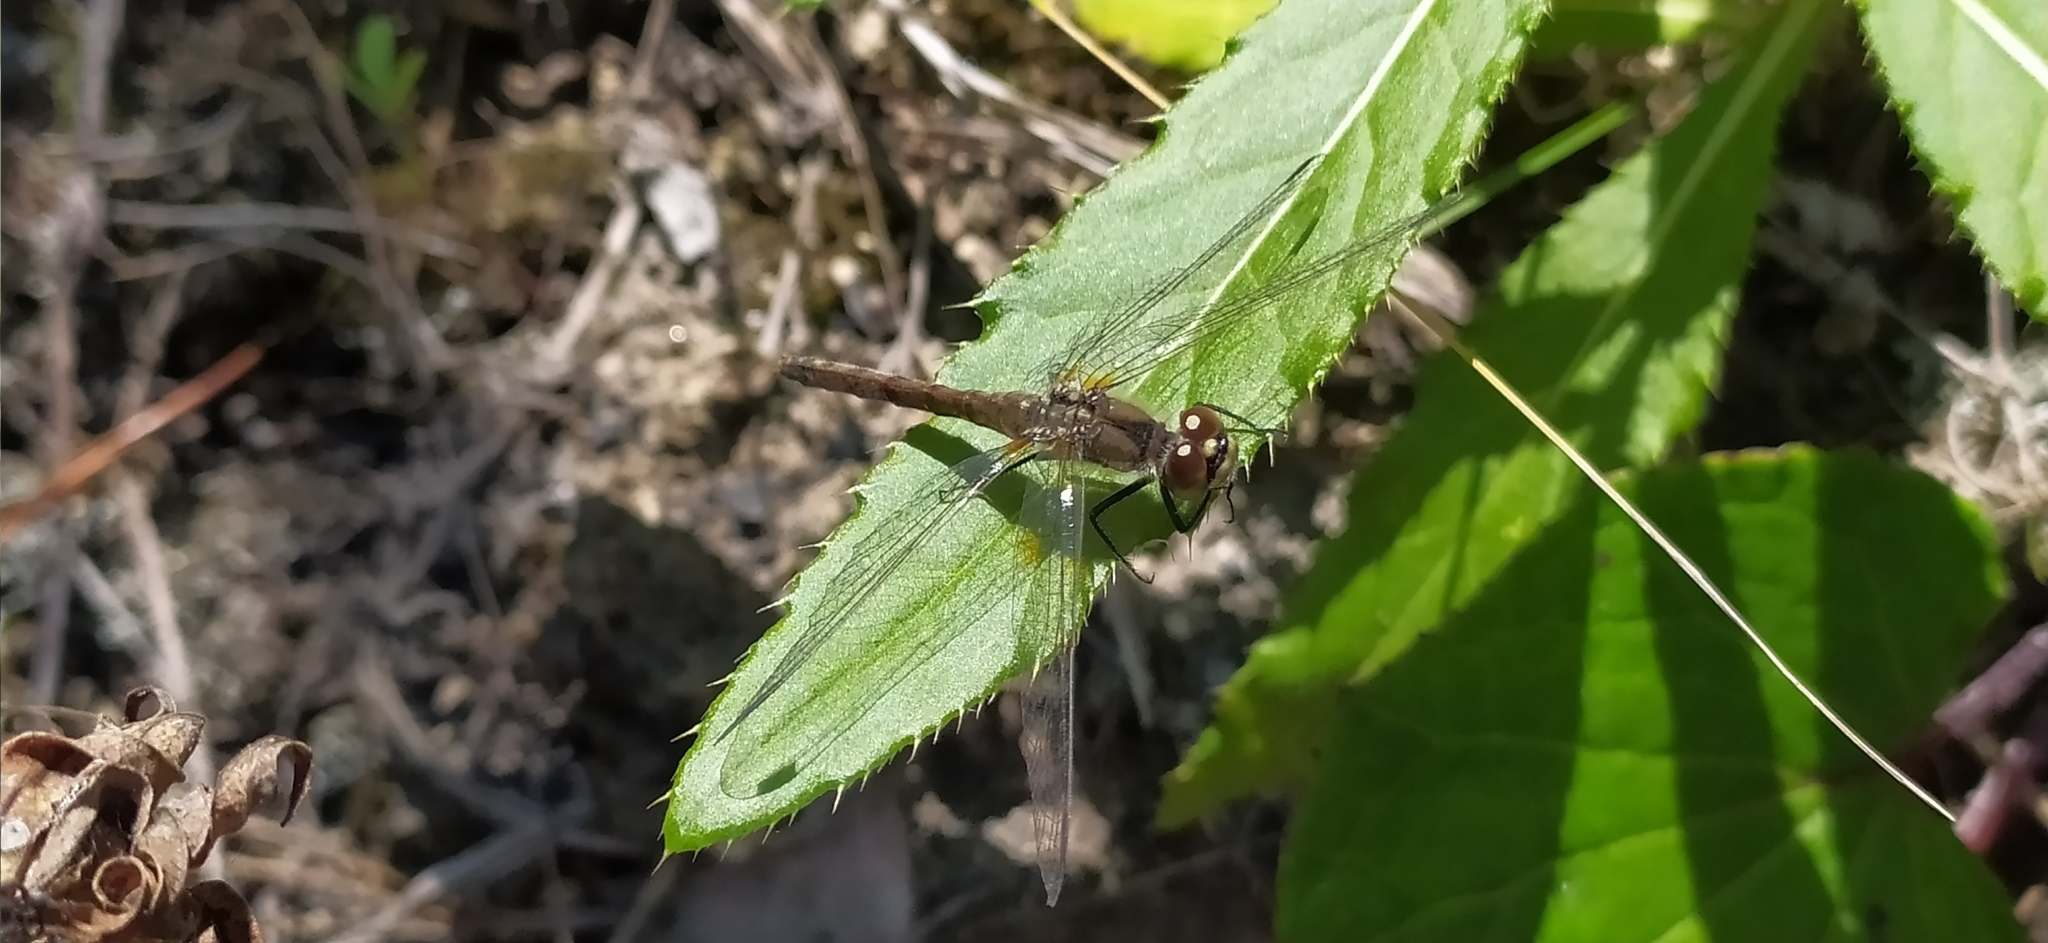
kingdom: Animalia
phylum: Arthropoda
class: Insecta
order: Odonata
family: Libellulidae
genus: Sympetrum
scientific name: Sympetrum danae
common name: Black darter
